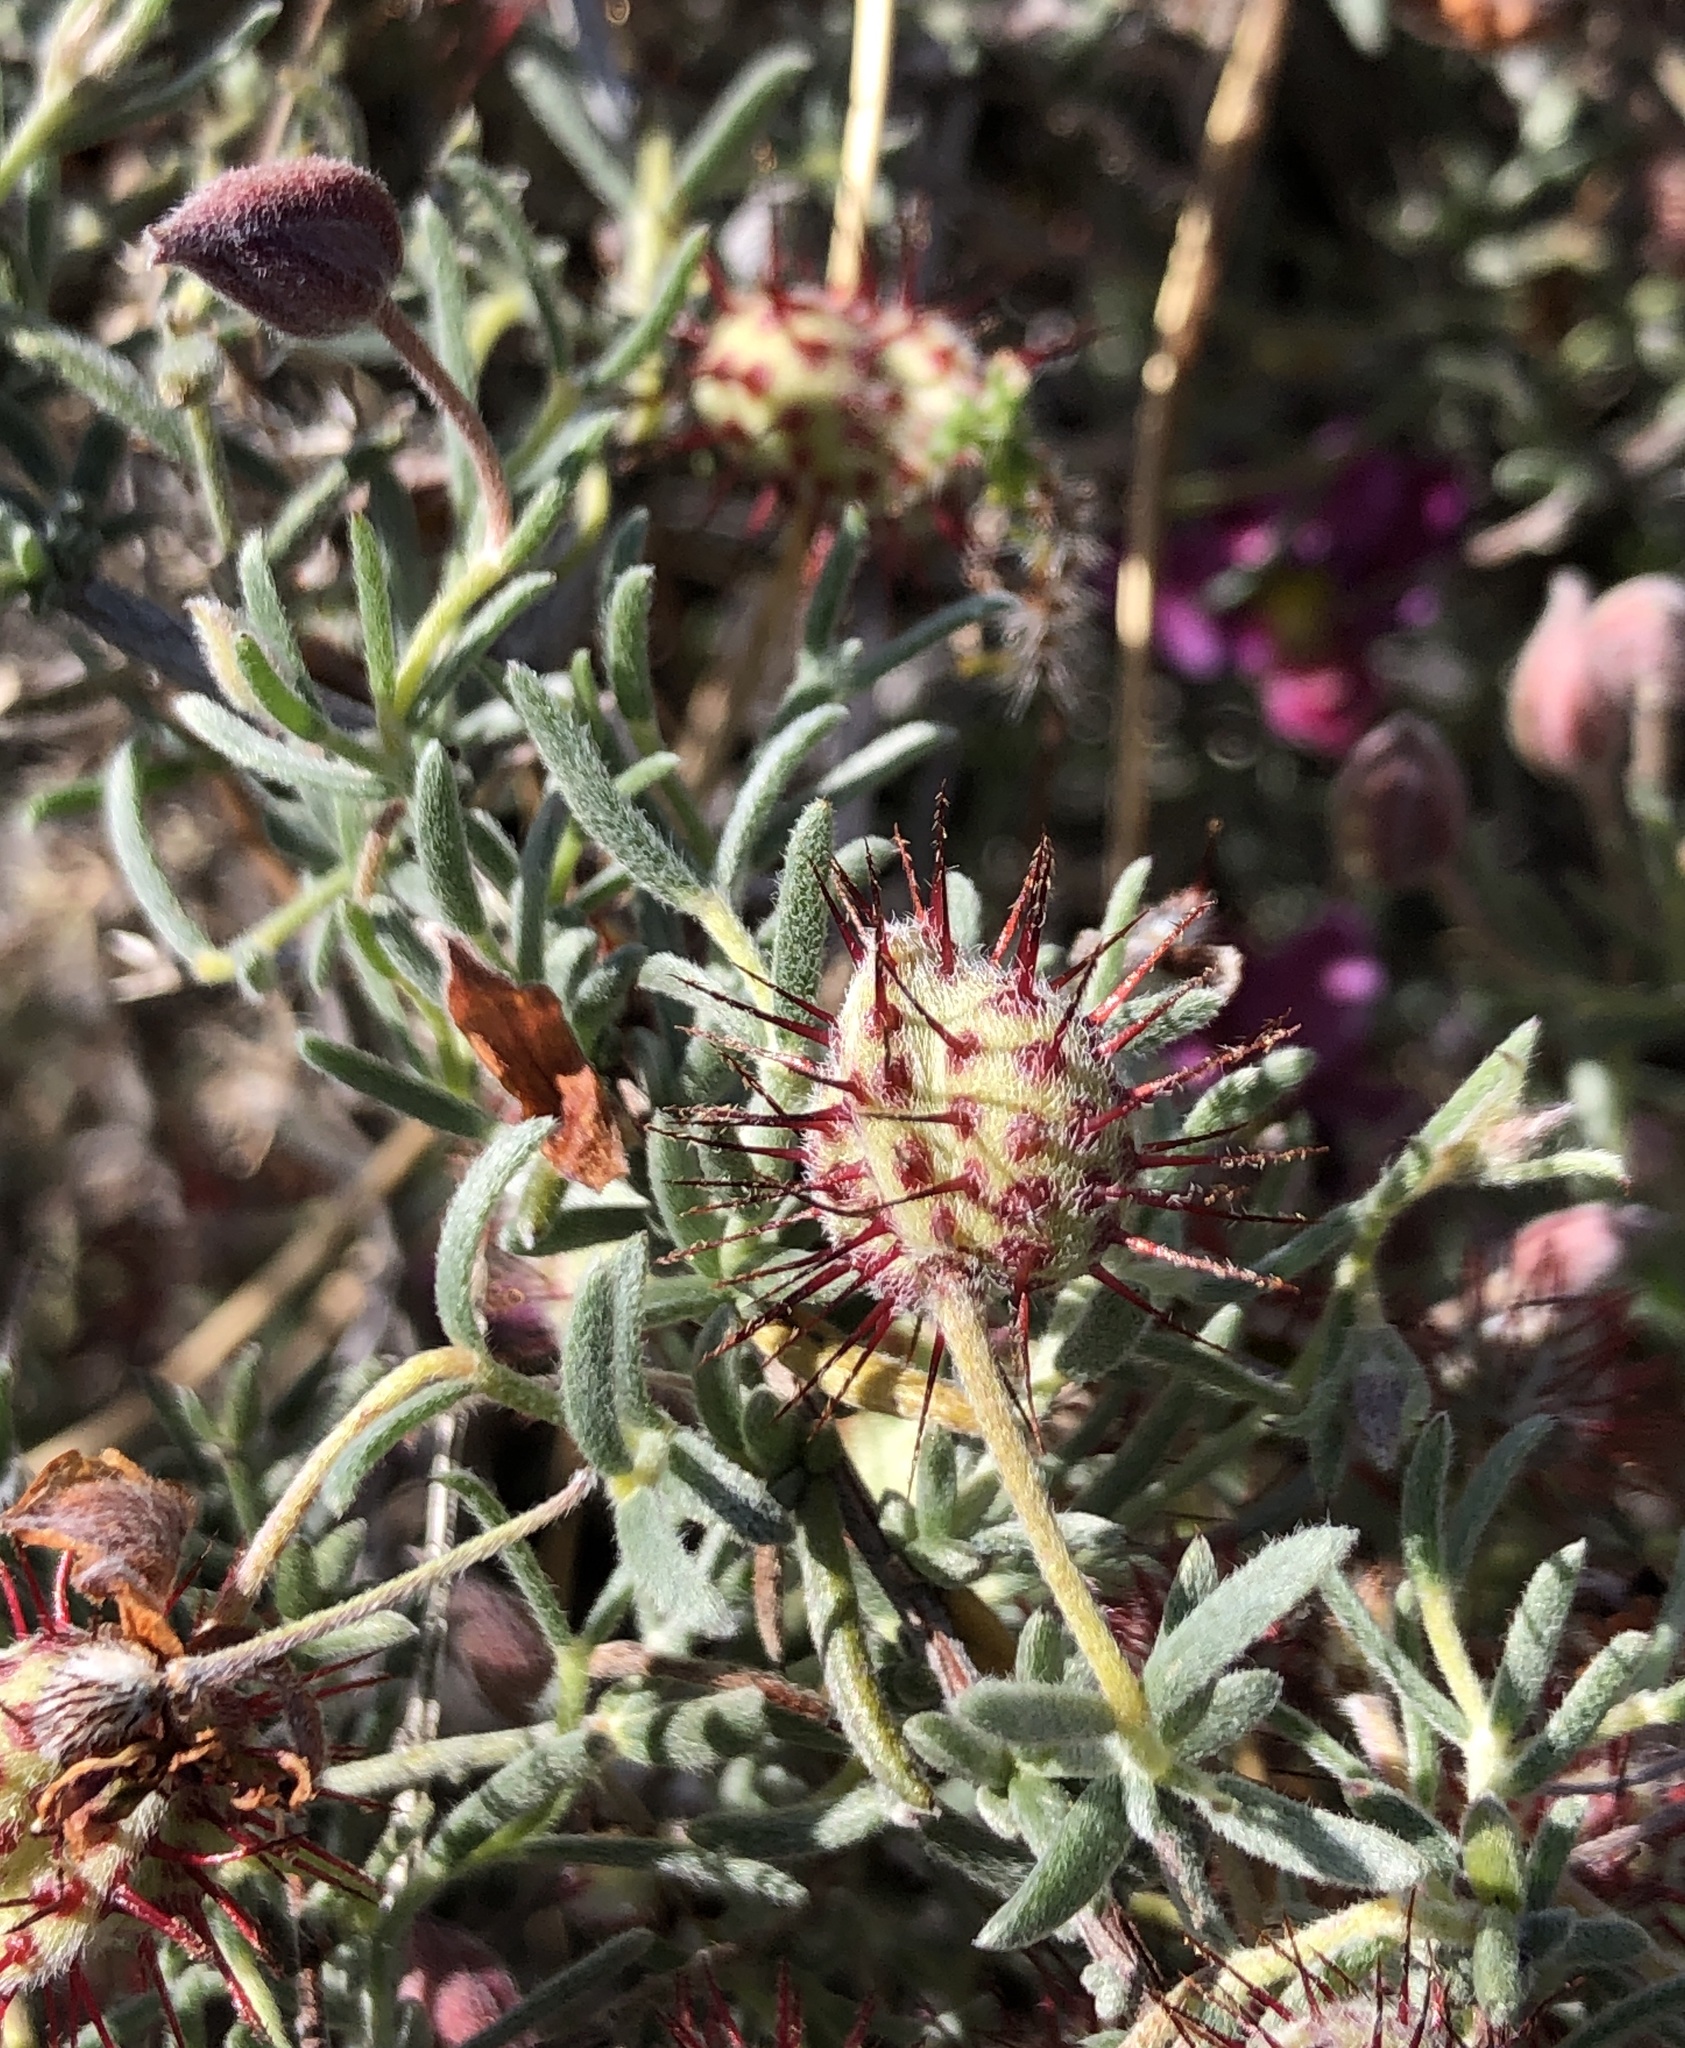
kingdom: Plantae
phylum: Tracheophyta
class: Magnoliopsida
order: Zygophyllales
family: Krameriaceae
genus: Krameria
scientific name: Krameria erecta
